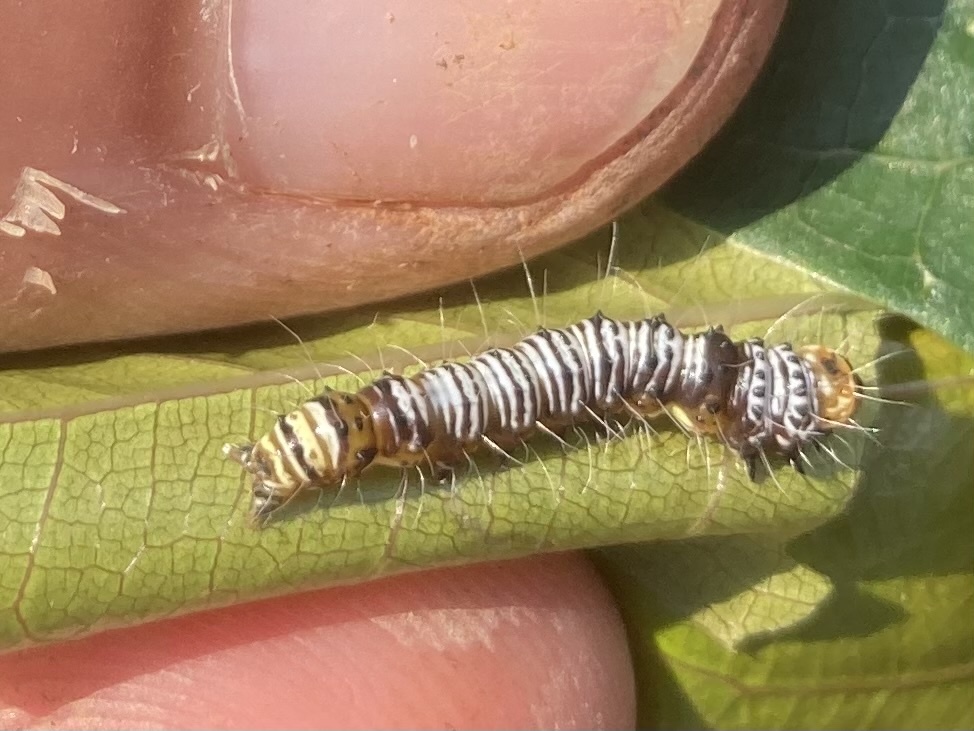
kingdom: Animalia
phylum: Arthropoda
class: Insecta
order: Lepidoptera
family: Erebidae
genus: Asota
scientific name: Asota speciosa
